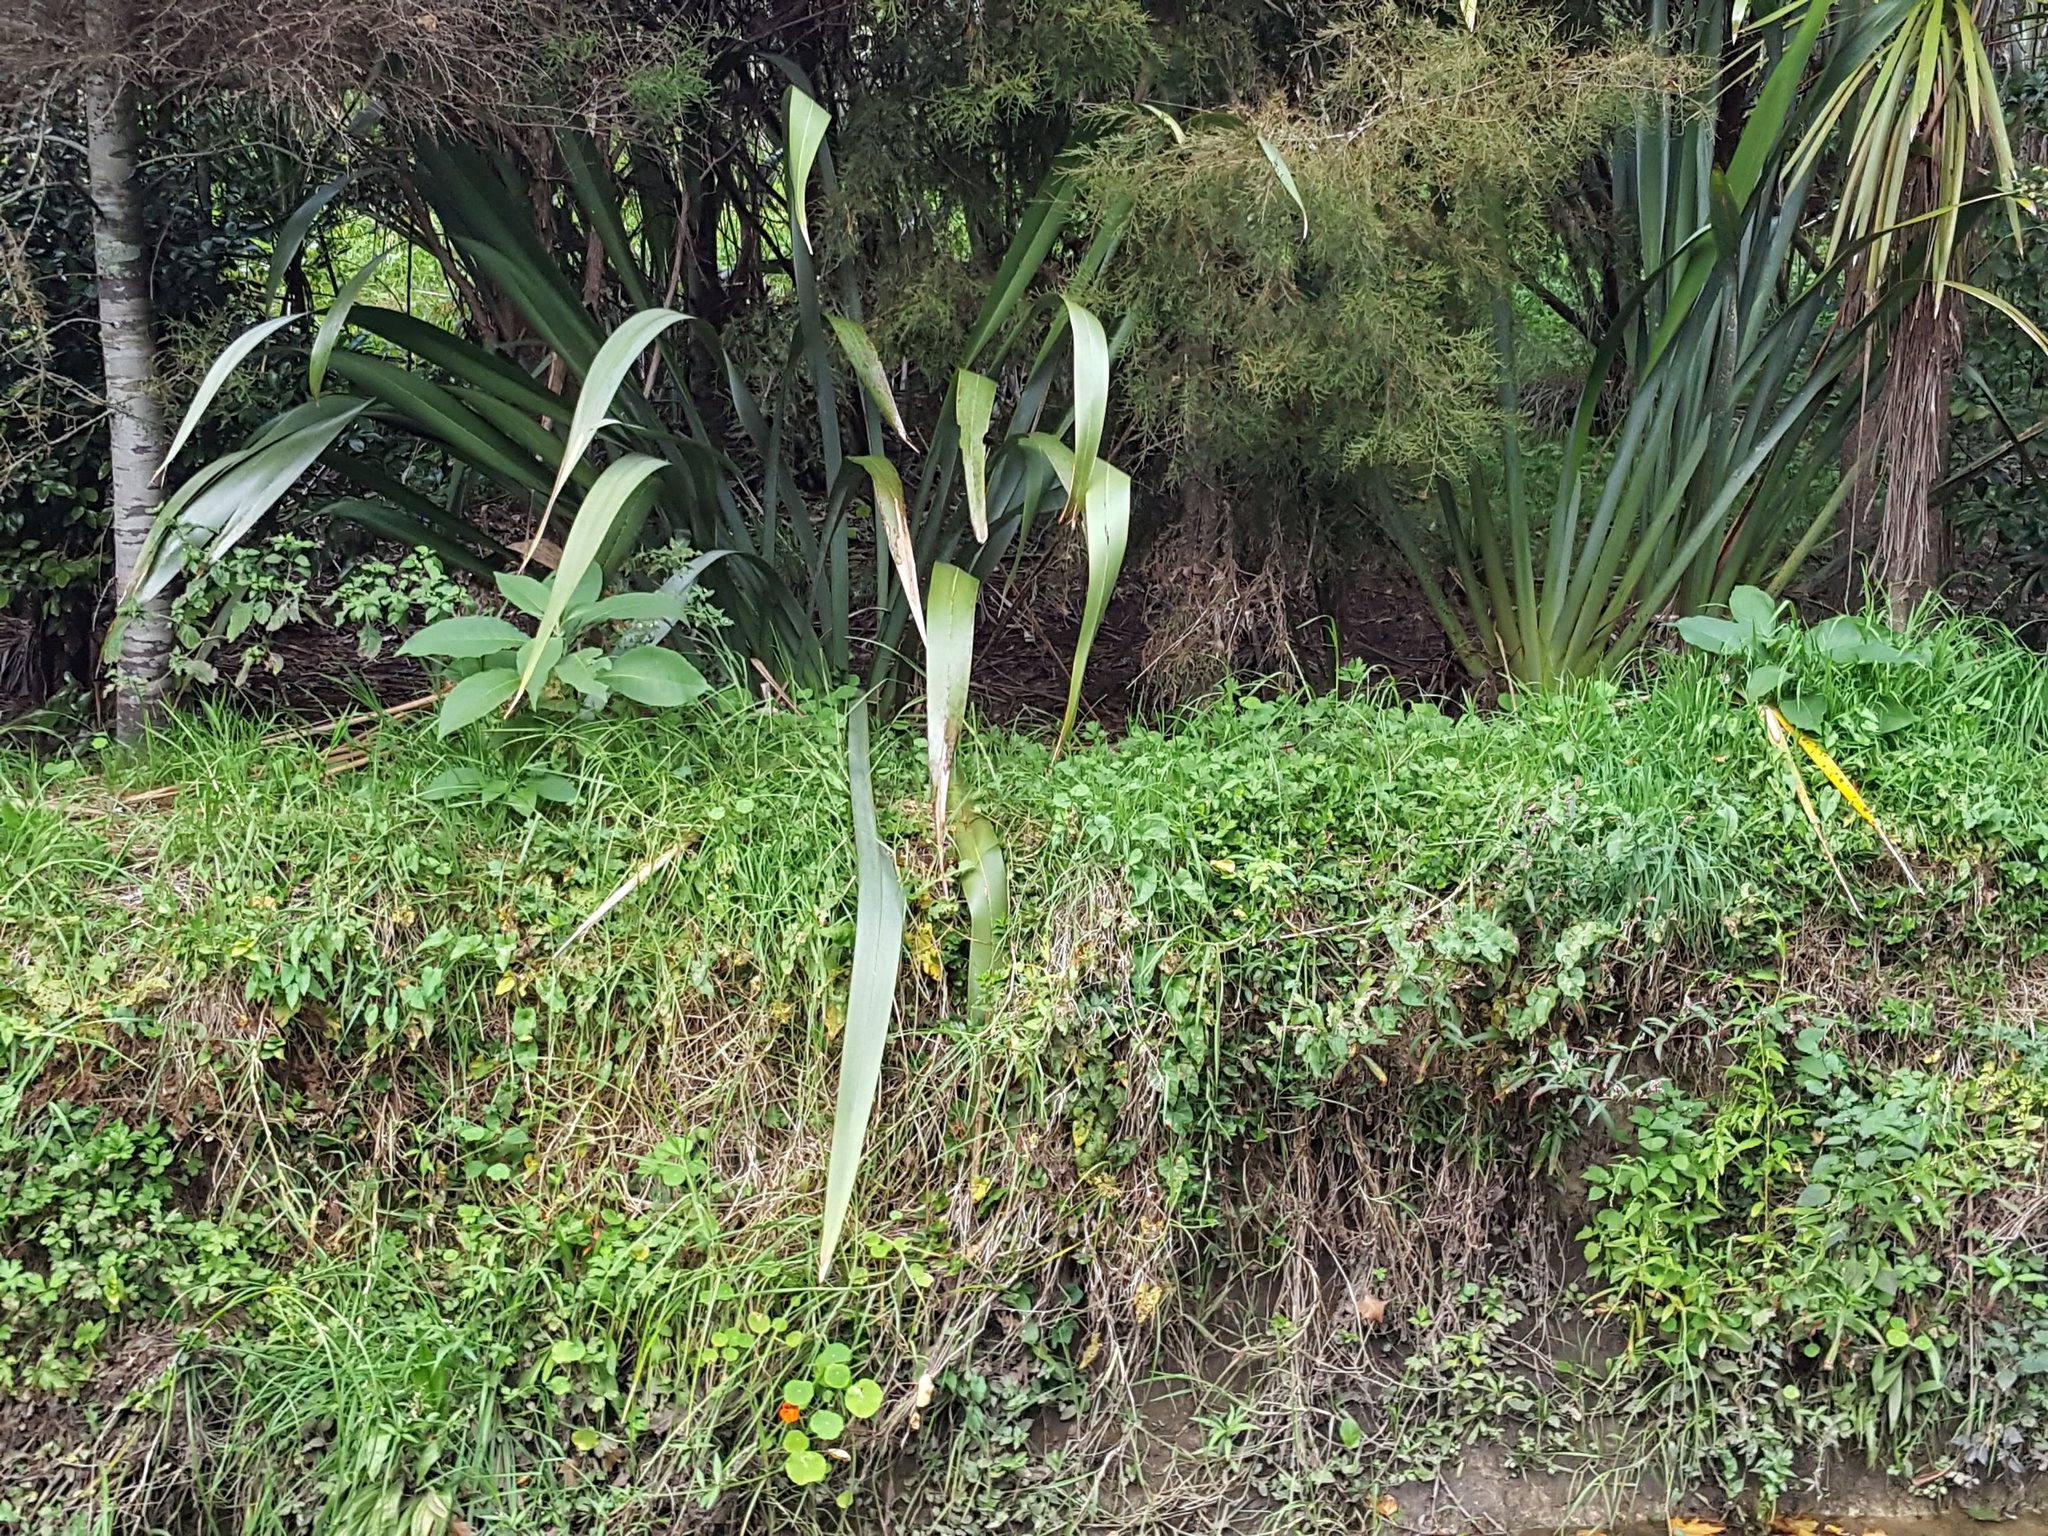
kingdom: Plantae
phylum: Tracheophyta
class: Magnoliopsida
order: Solanales
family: Solanaceae
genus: Solanum
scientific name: Solanum mauritianum
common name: Earleaf nightshade
